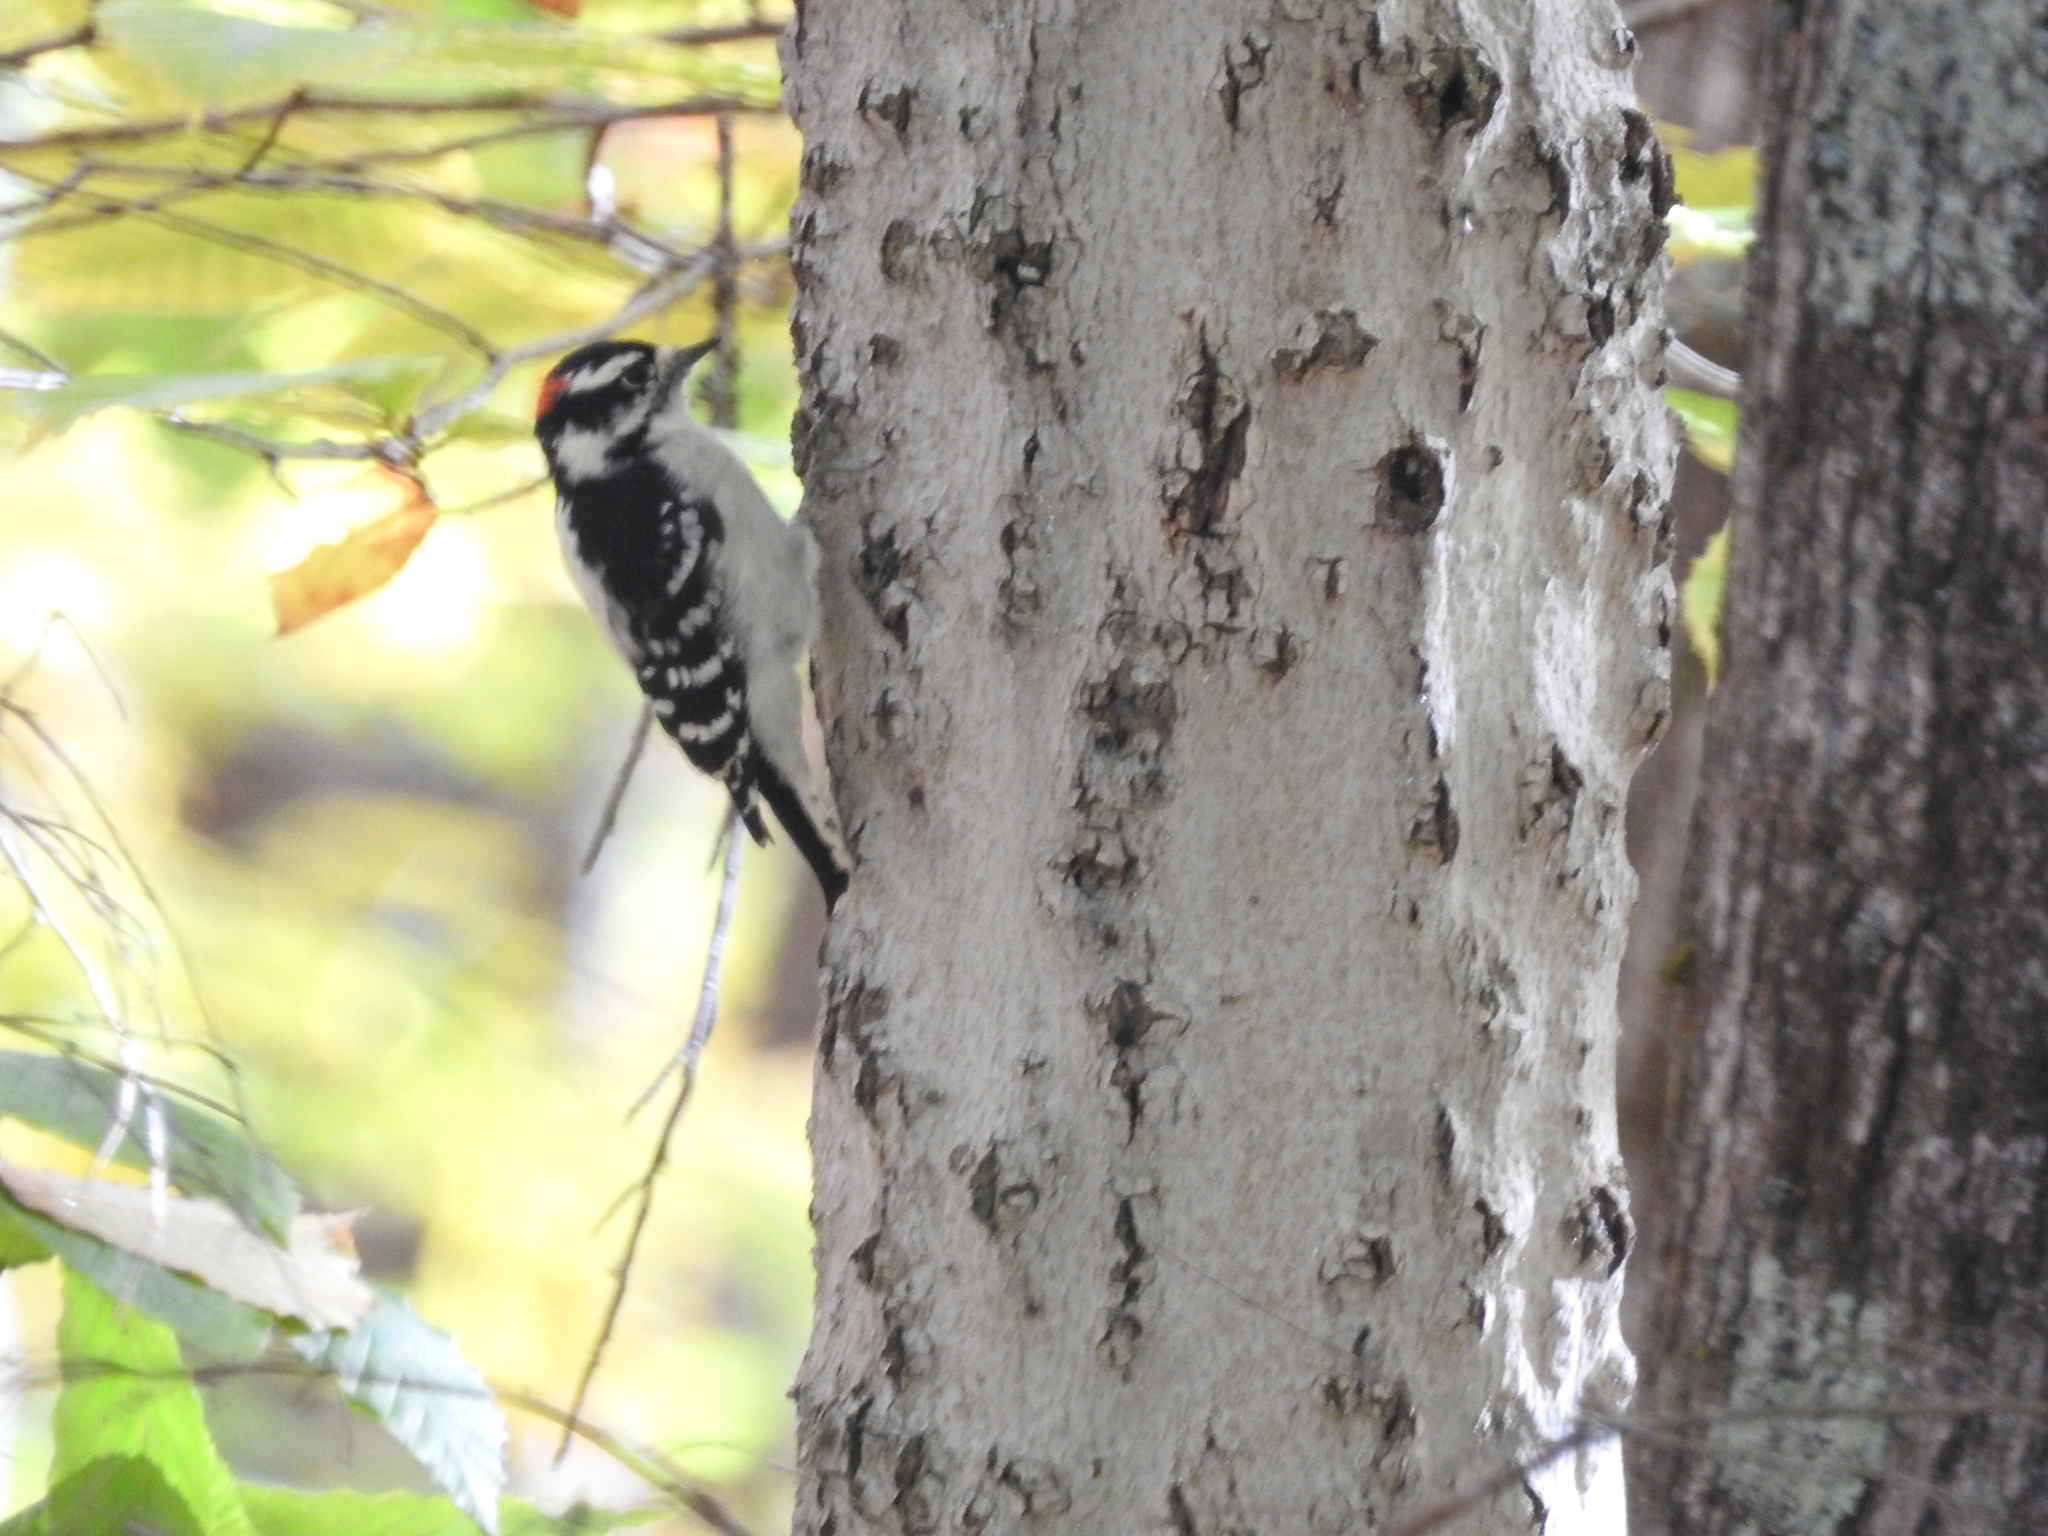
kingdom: Animalia
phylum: Chordata
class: Aves
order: Piciformes
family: Picidae
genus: Dryobates
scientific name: Dryobates pubescens
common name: Downy woodpecker
